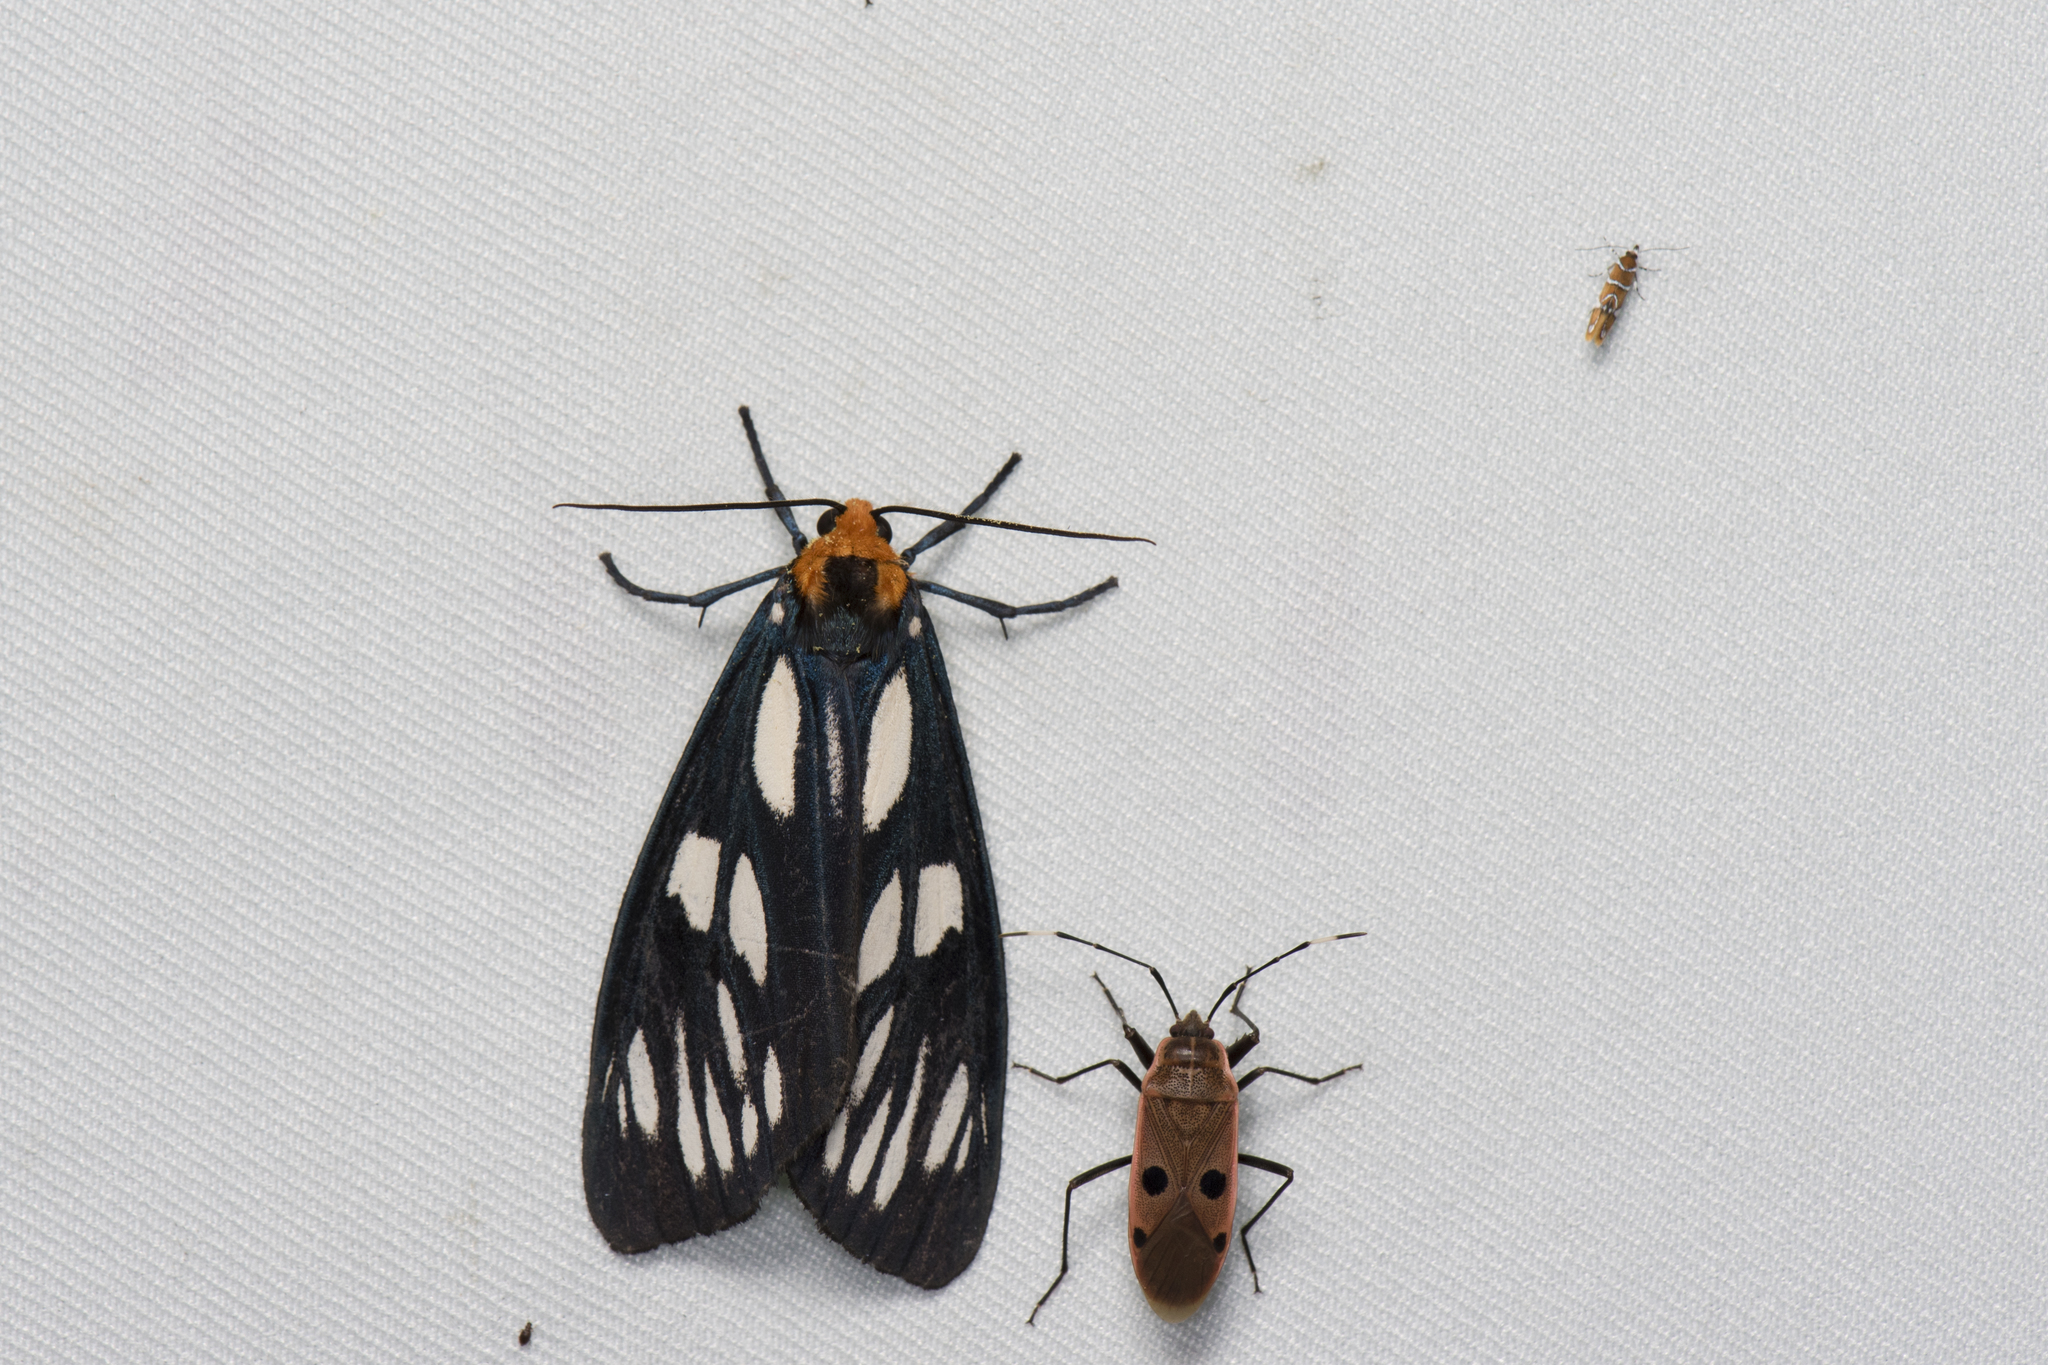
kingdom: Animalia
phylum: Arthropoda
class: Insecta
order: Lepidoptera
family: Erebidae
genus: Macrobrochis
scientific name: Macrobrochis gigas
